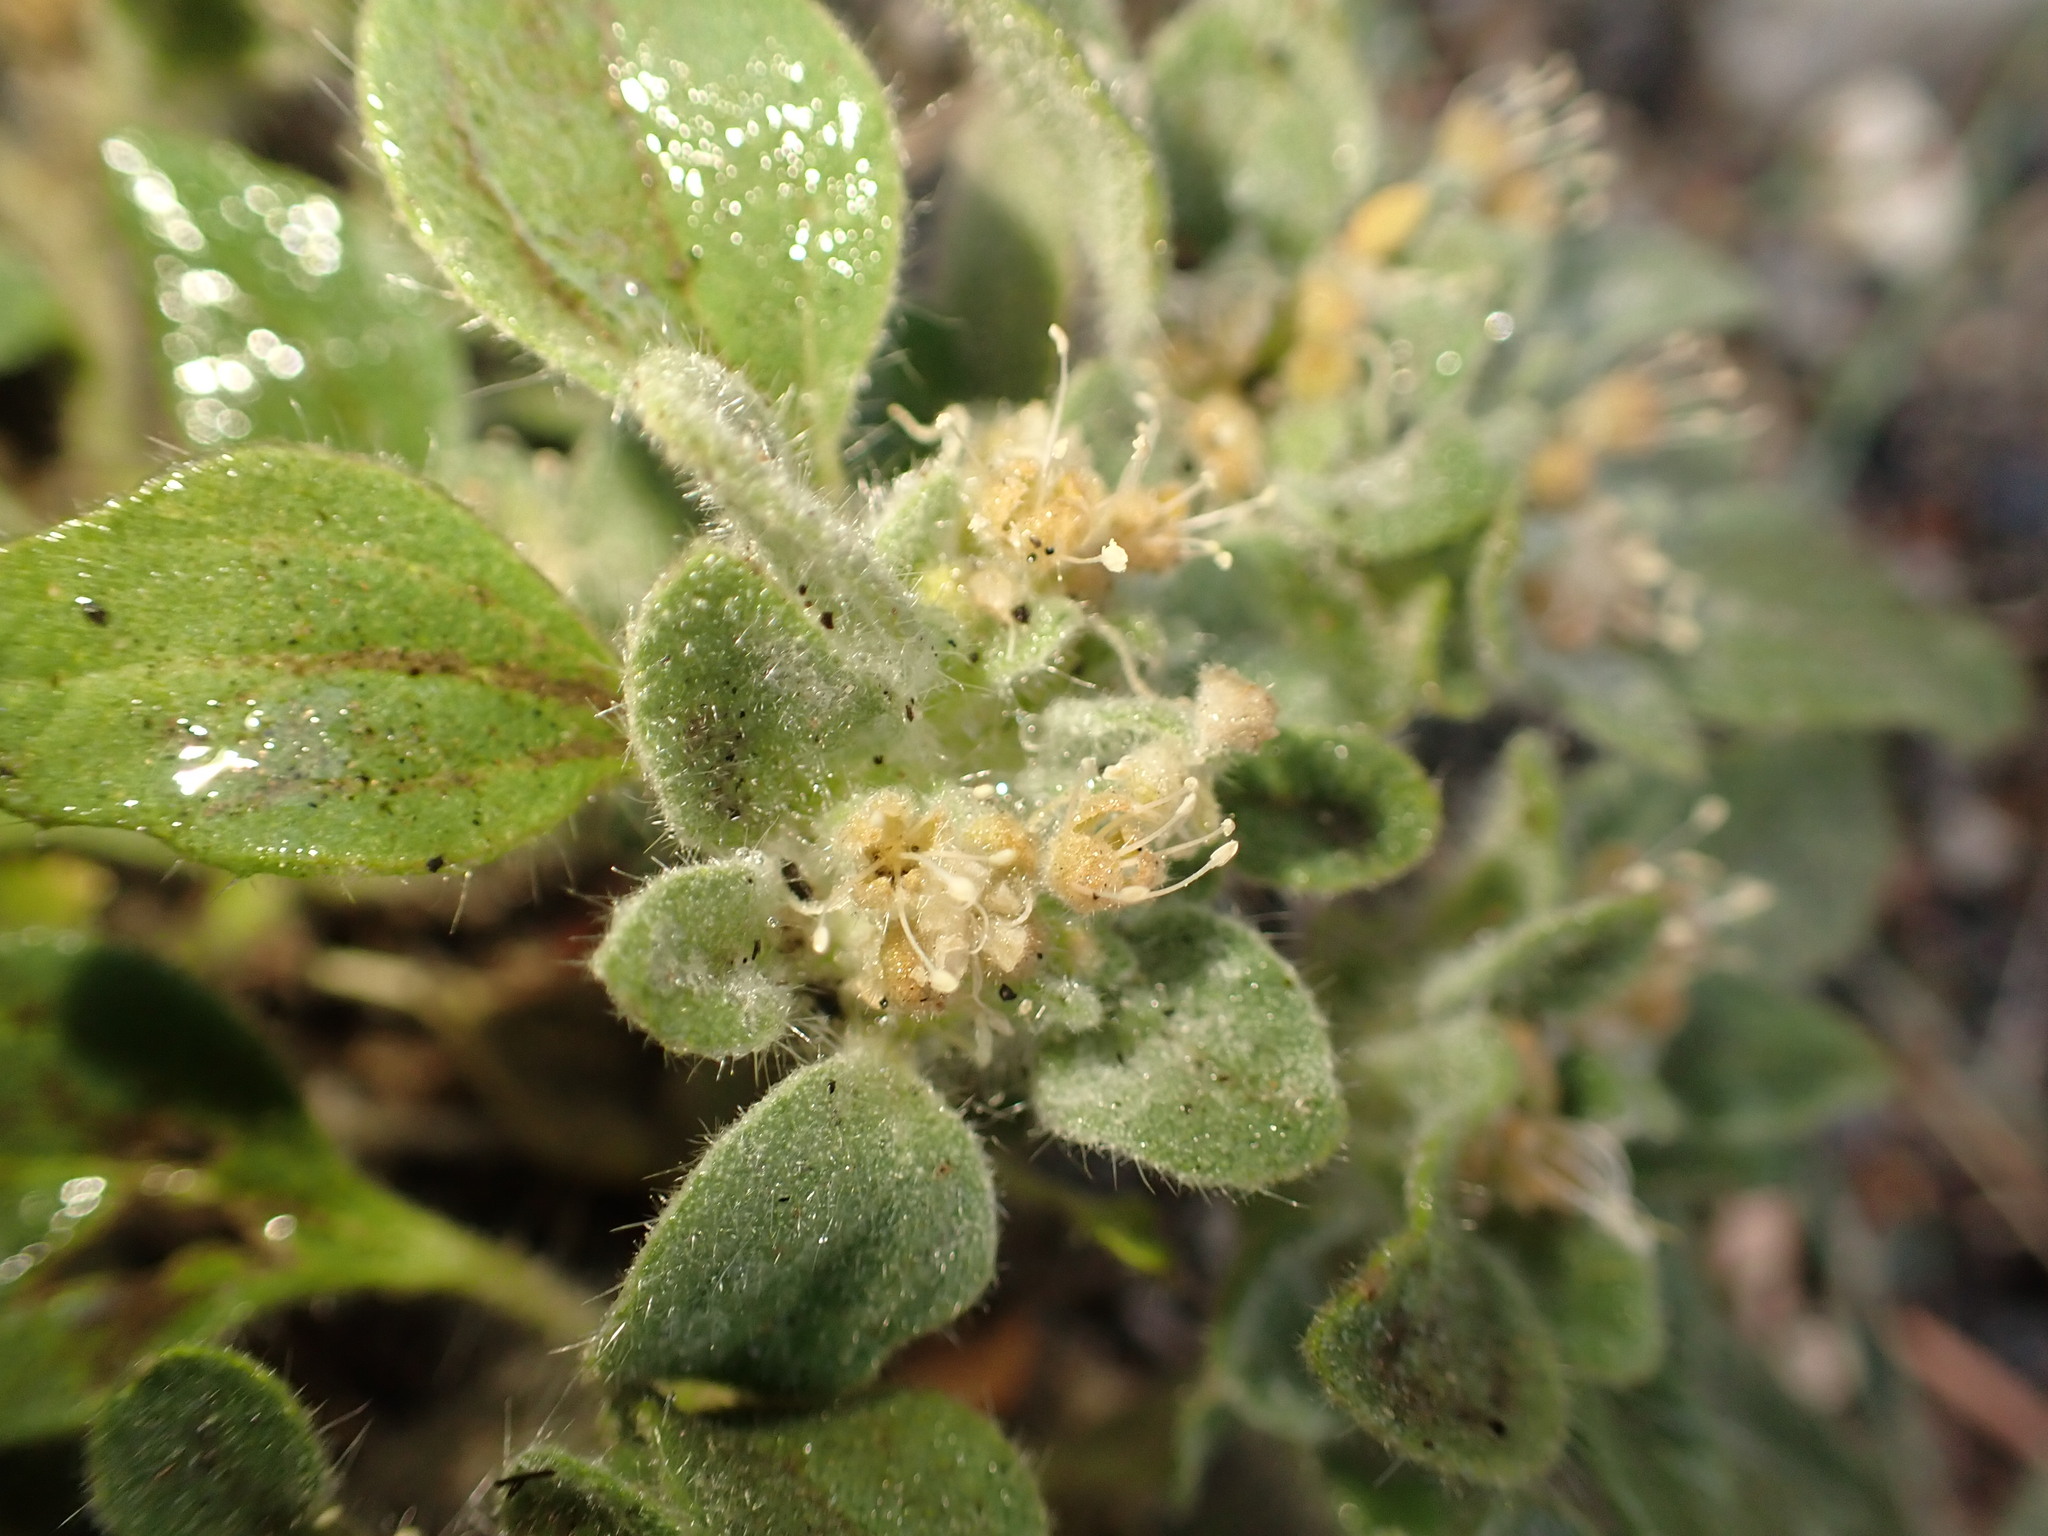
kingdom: Plantae
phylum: Tracheophyta
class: Magnoliopsida
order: Malpighiales
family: Euphorbiaceae
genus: Croton
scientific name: Croton setiger
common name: Dove weed
